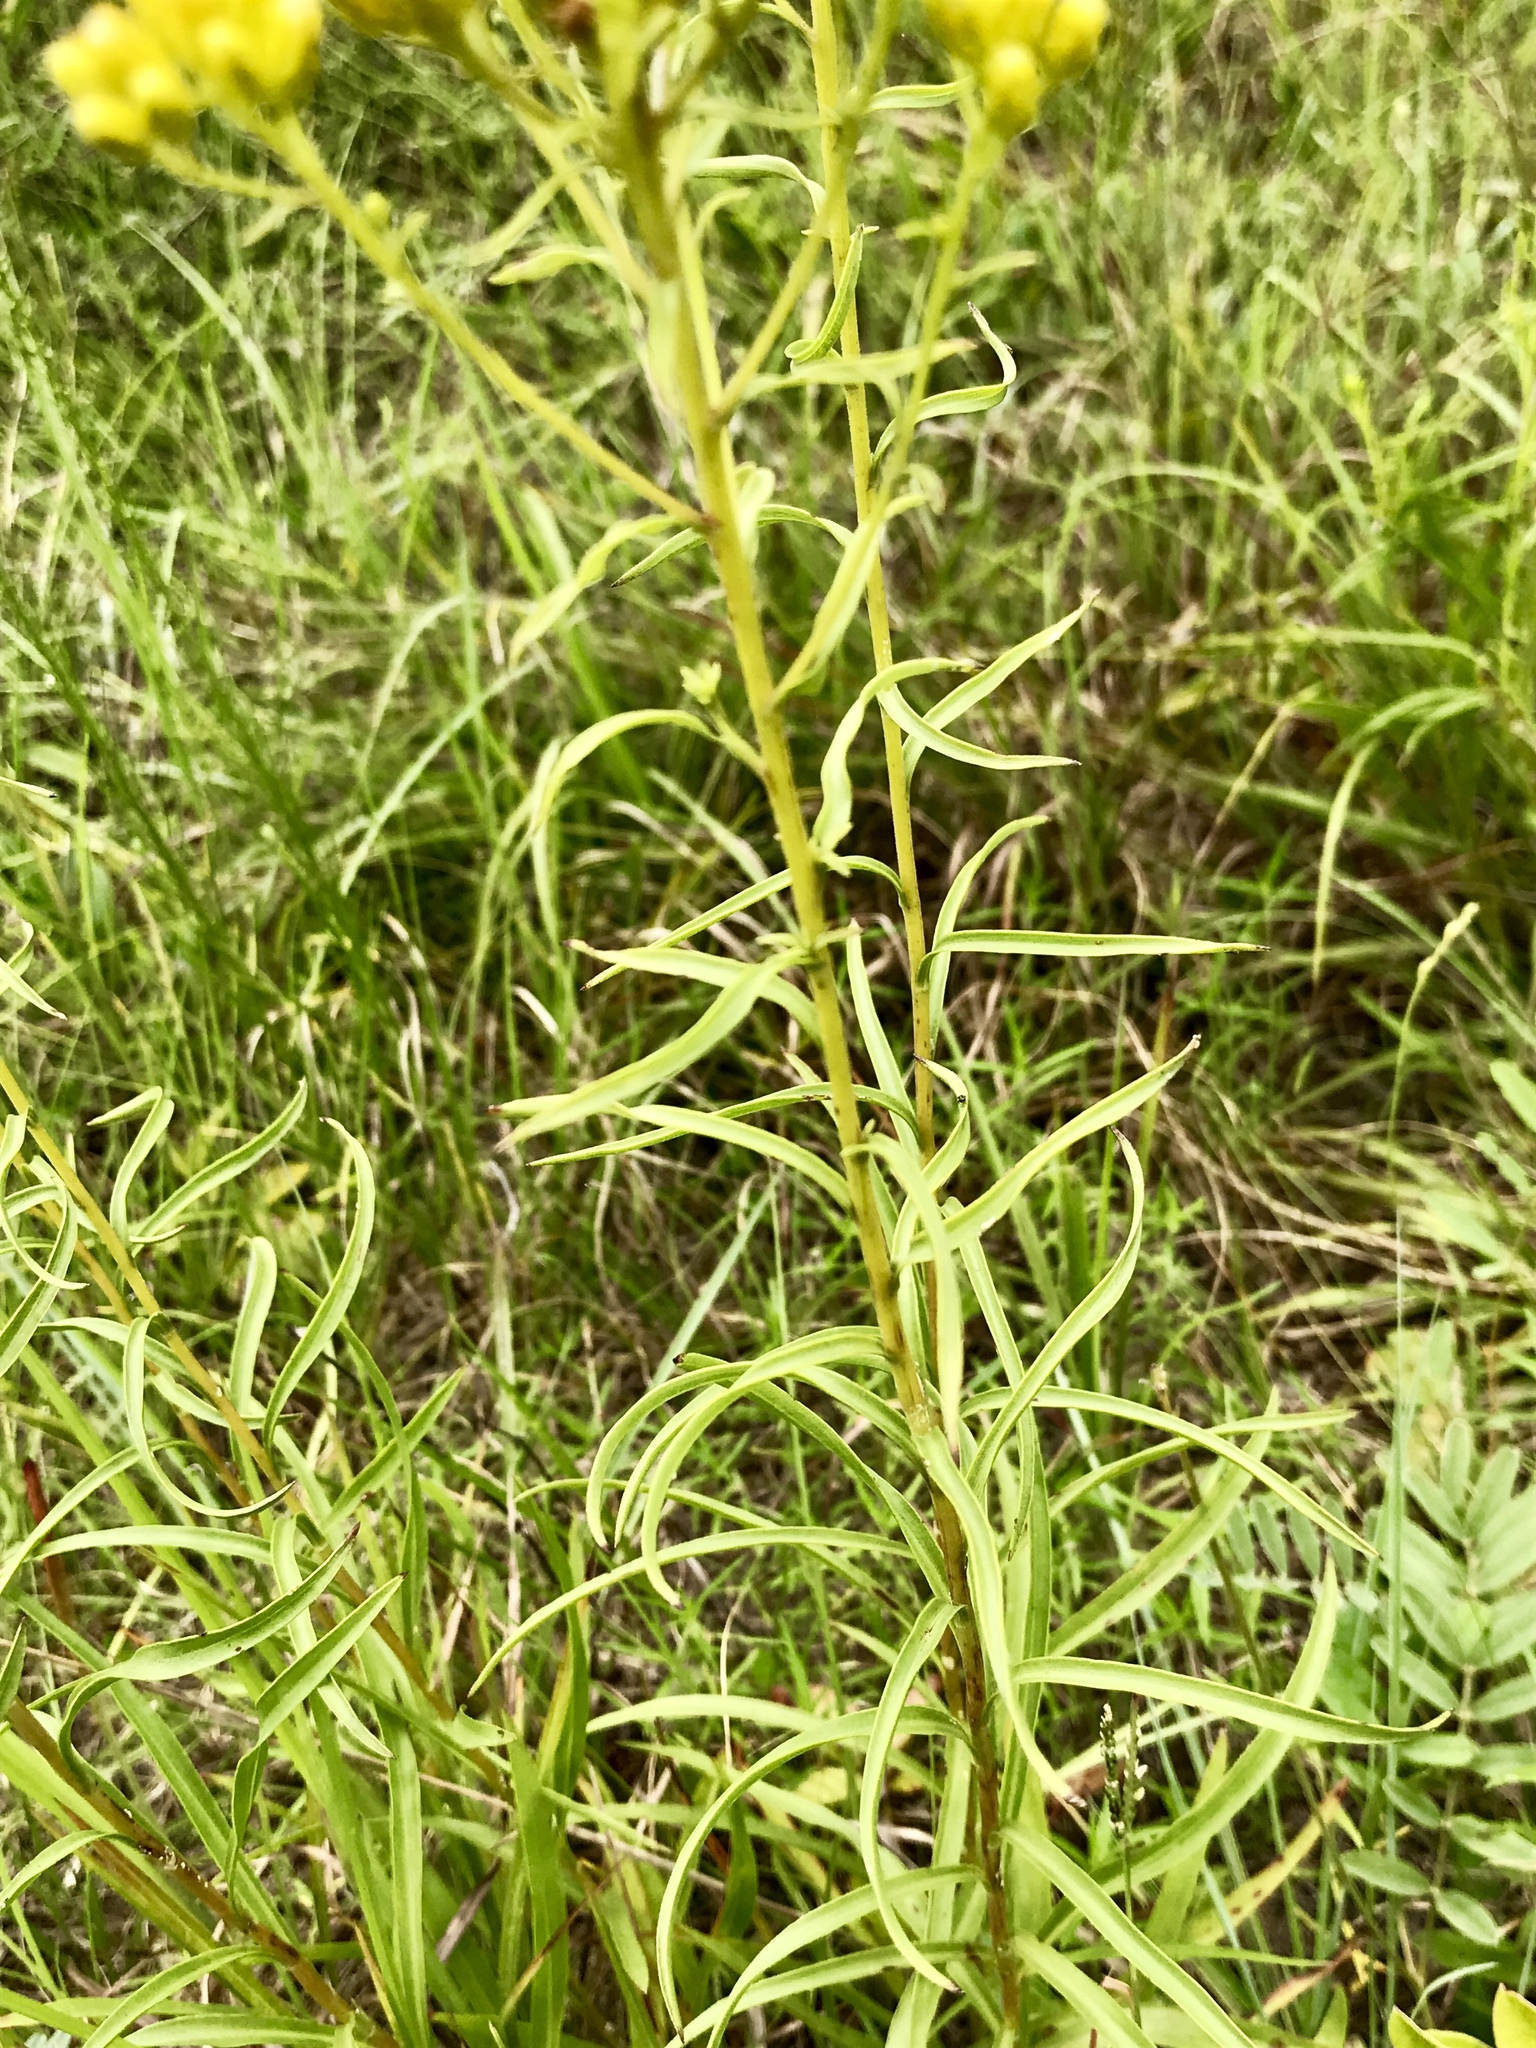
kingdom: Plantae
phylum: Tracheophyta
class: Magnoliopsida
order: Asterales
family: Asteraceae
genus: Solidago
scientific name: Solidago nitida
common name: Shiny goldenrod
